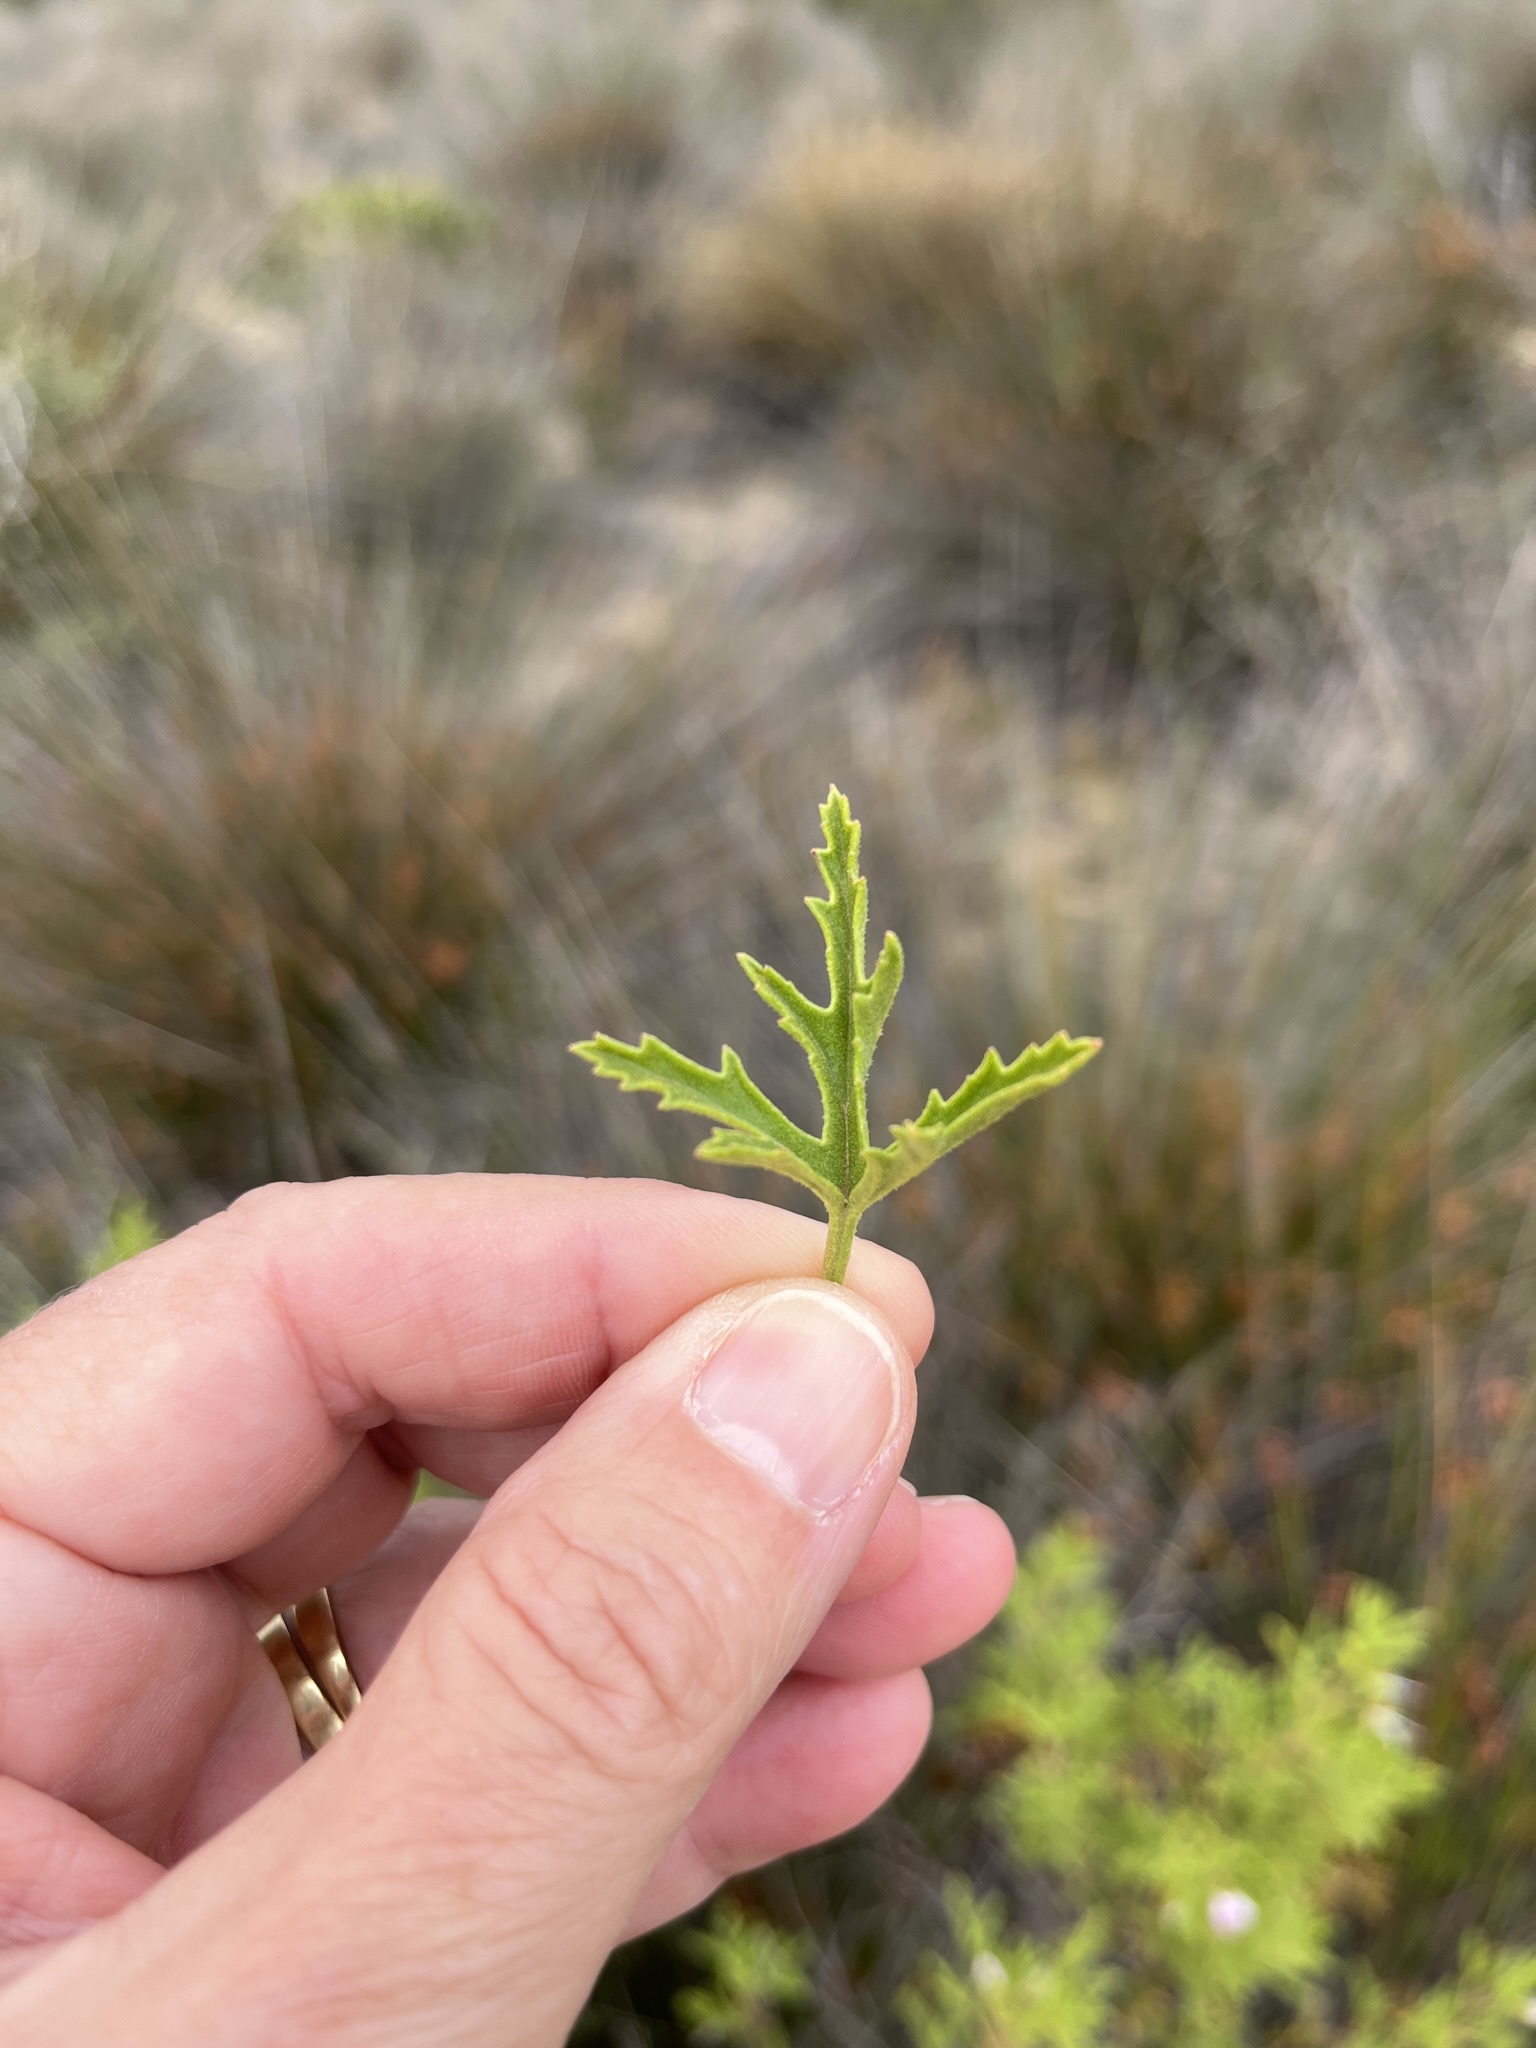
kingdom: Plantae
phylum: Tracheophyta
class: Magnoliopsida
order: Geraniales
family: Geraniaceae
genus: Pelargonium
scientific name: Pelargonium scabrum
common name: Apricot geranium
